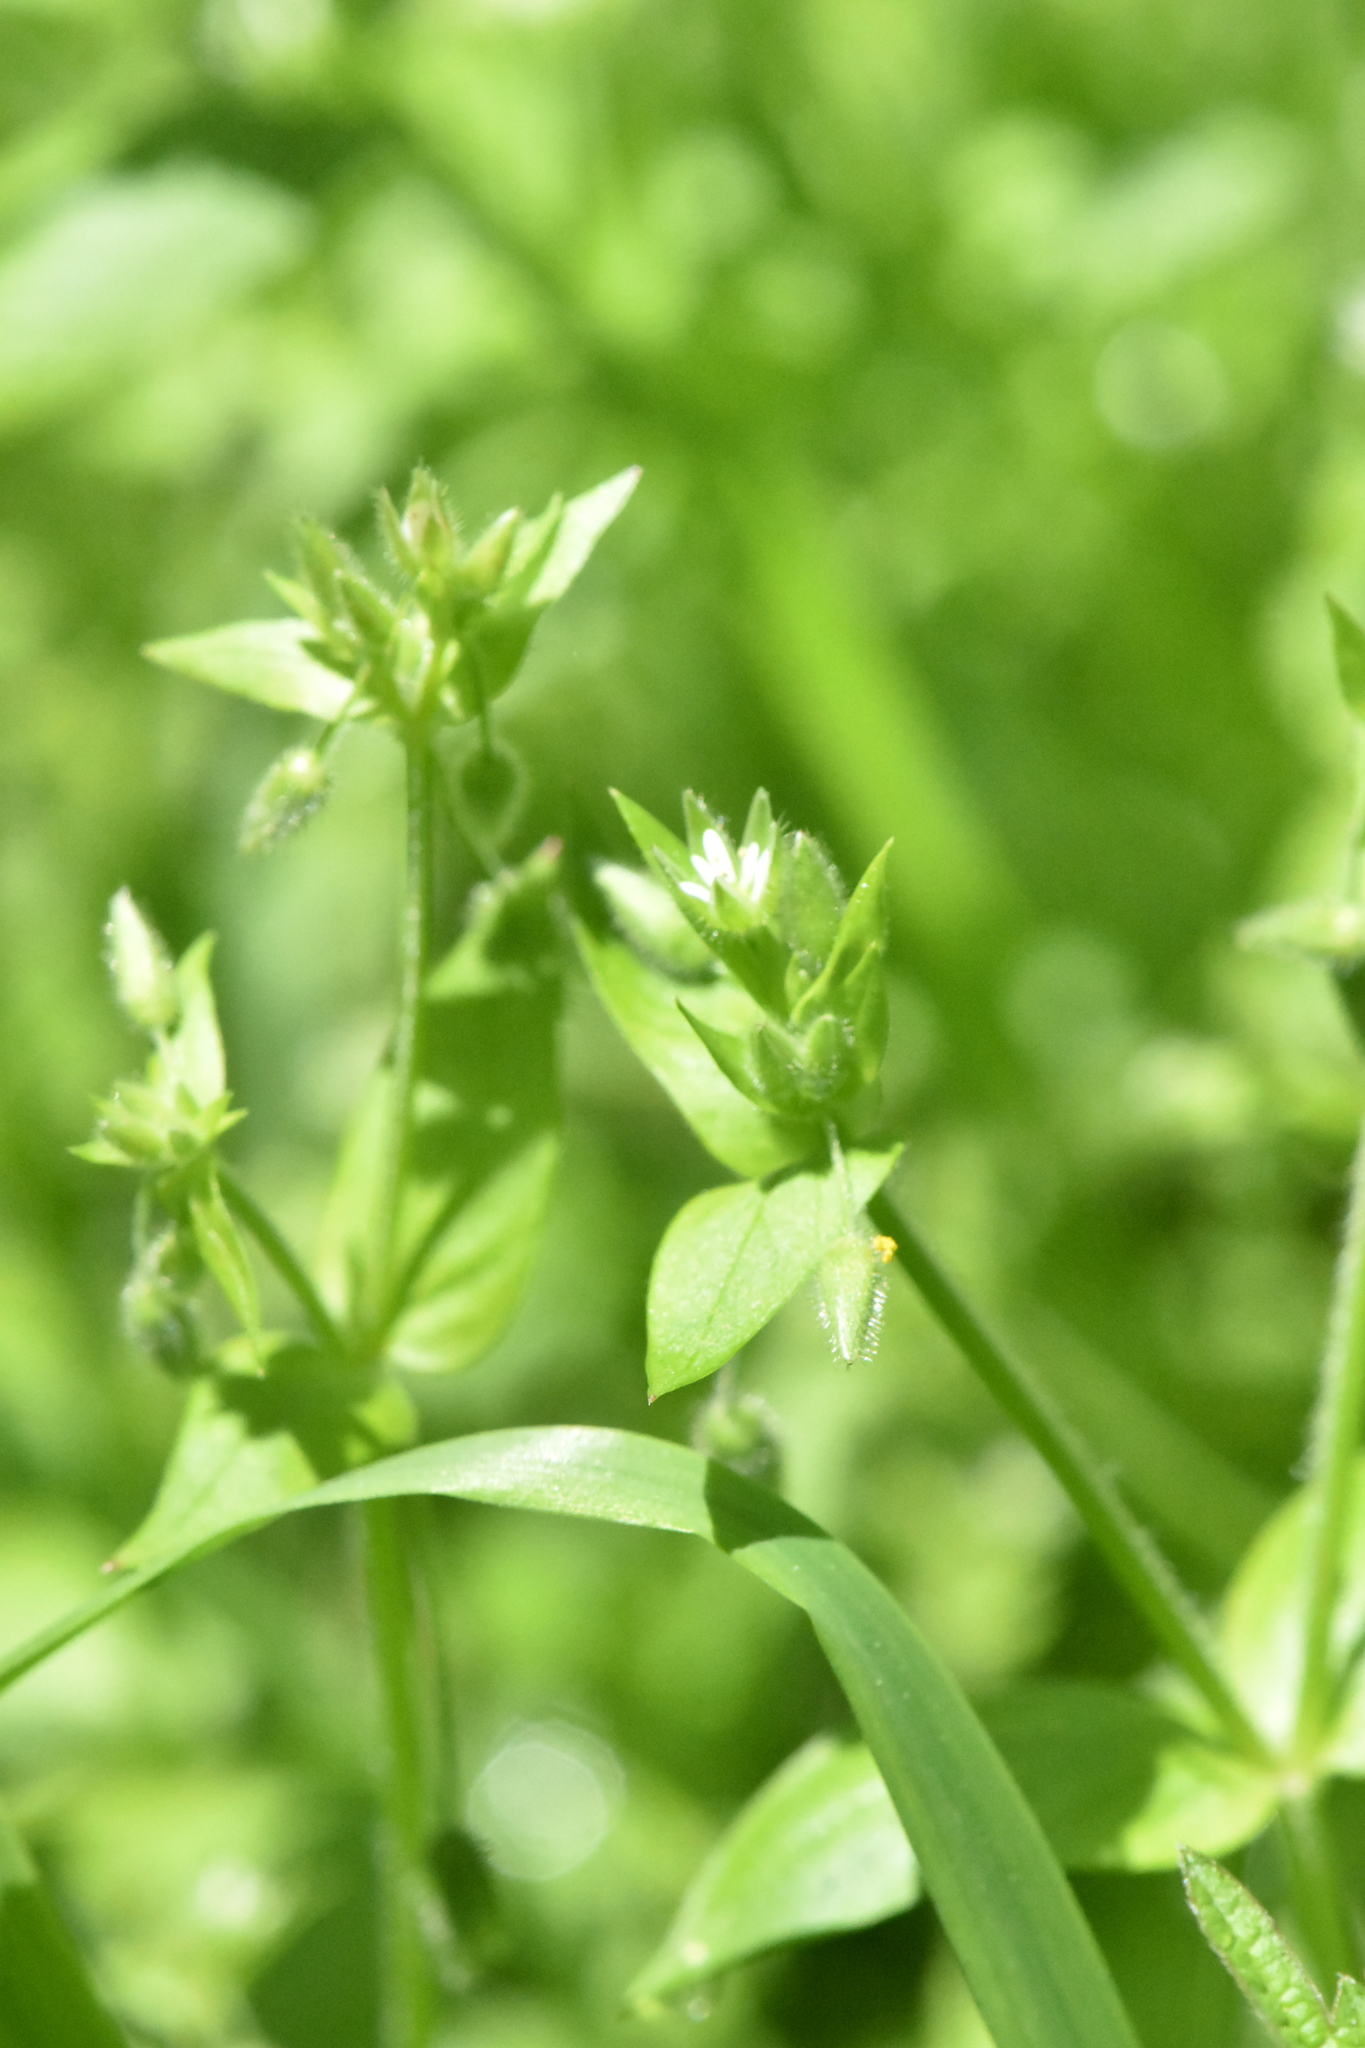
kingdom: Plantae
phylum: Tracheophyta
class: Magnoliopsida
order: Caryophyllales
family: Caryophyllaceae
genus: Stellaria
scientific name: Stellaria media
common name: Common chickweed
